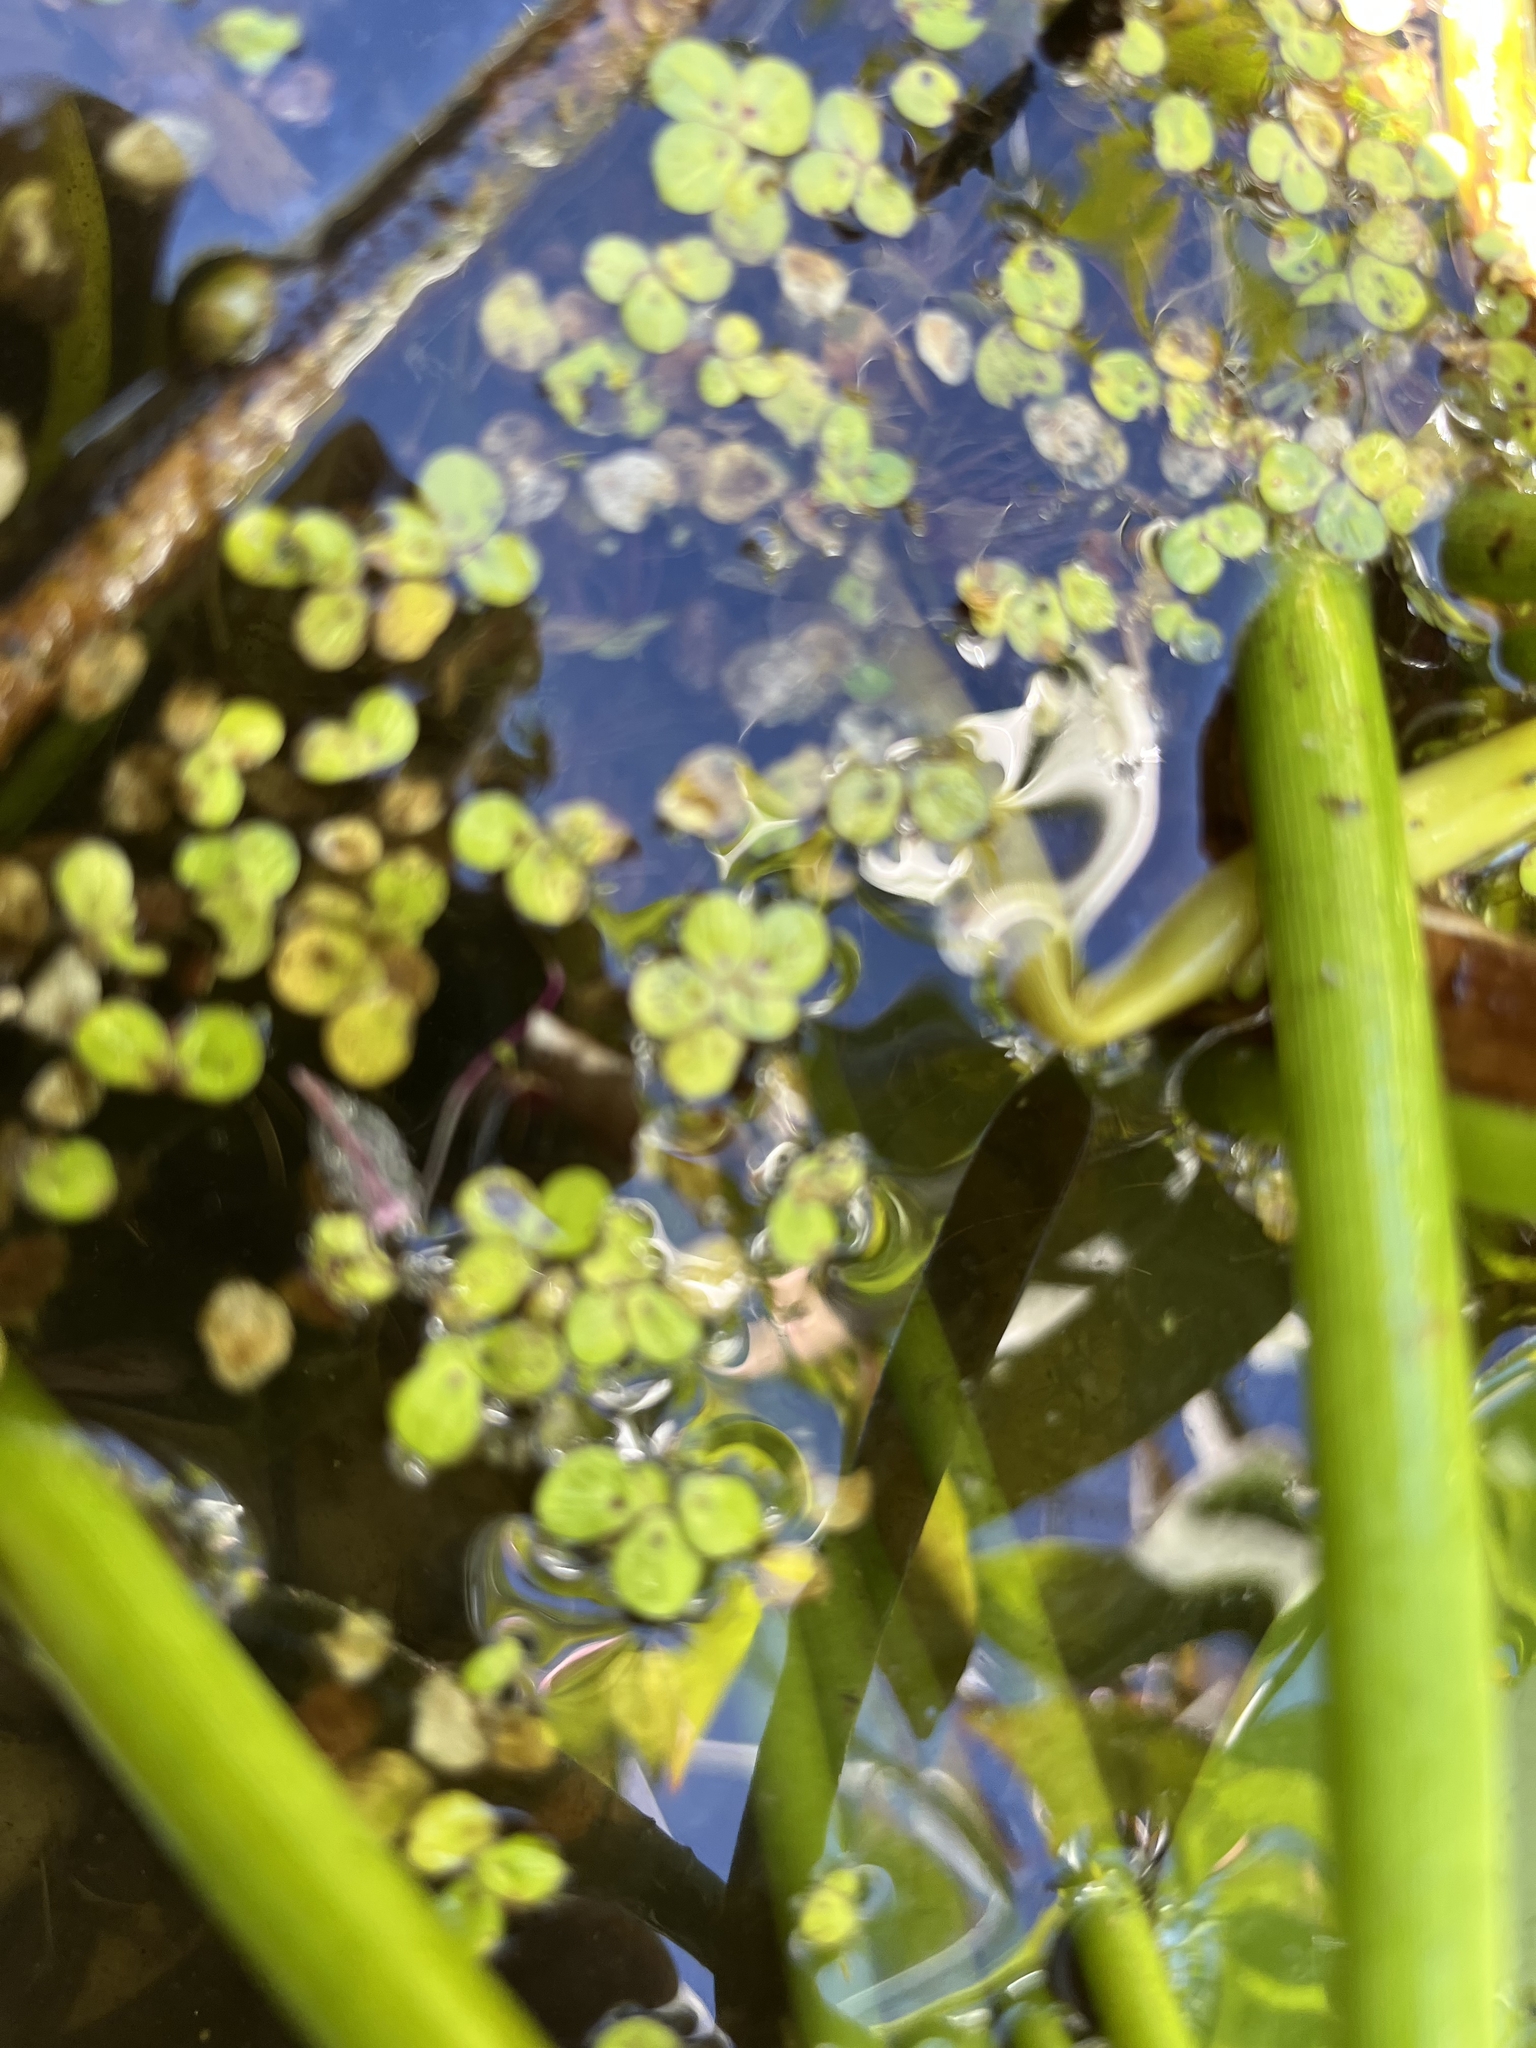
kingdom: Plantae
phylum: Tracheophyta
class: Liliopsida
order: Alismatales
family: Araceae
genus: Spirodela
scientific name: Spirodela polyrhiza
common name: Great duckweed
